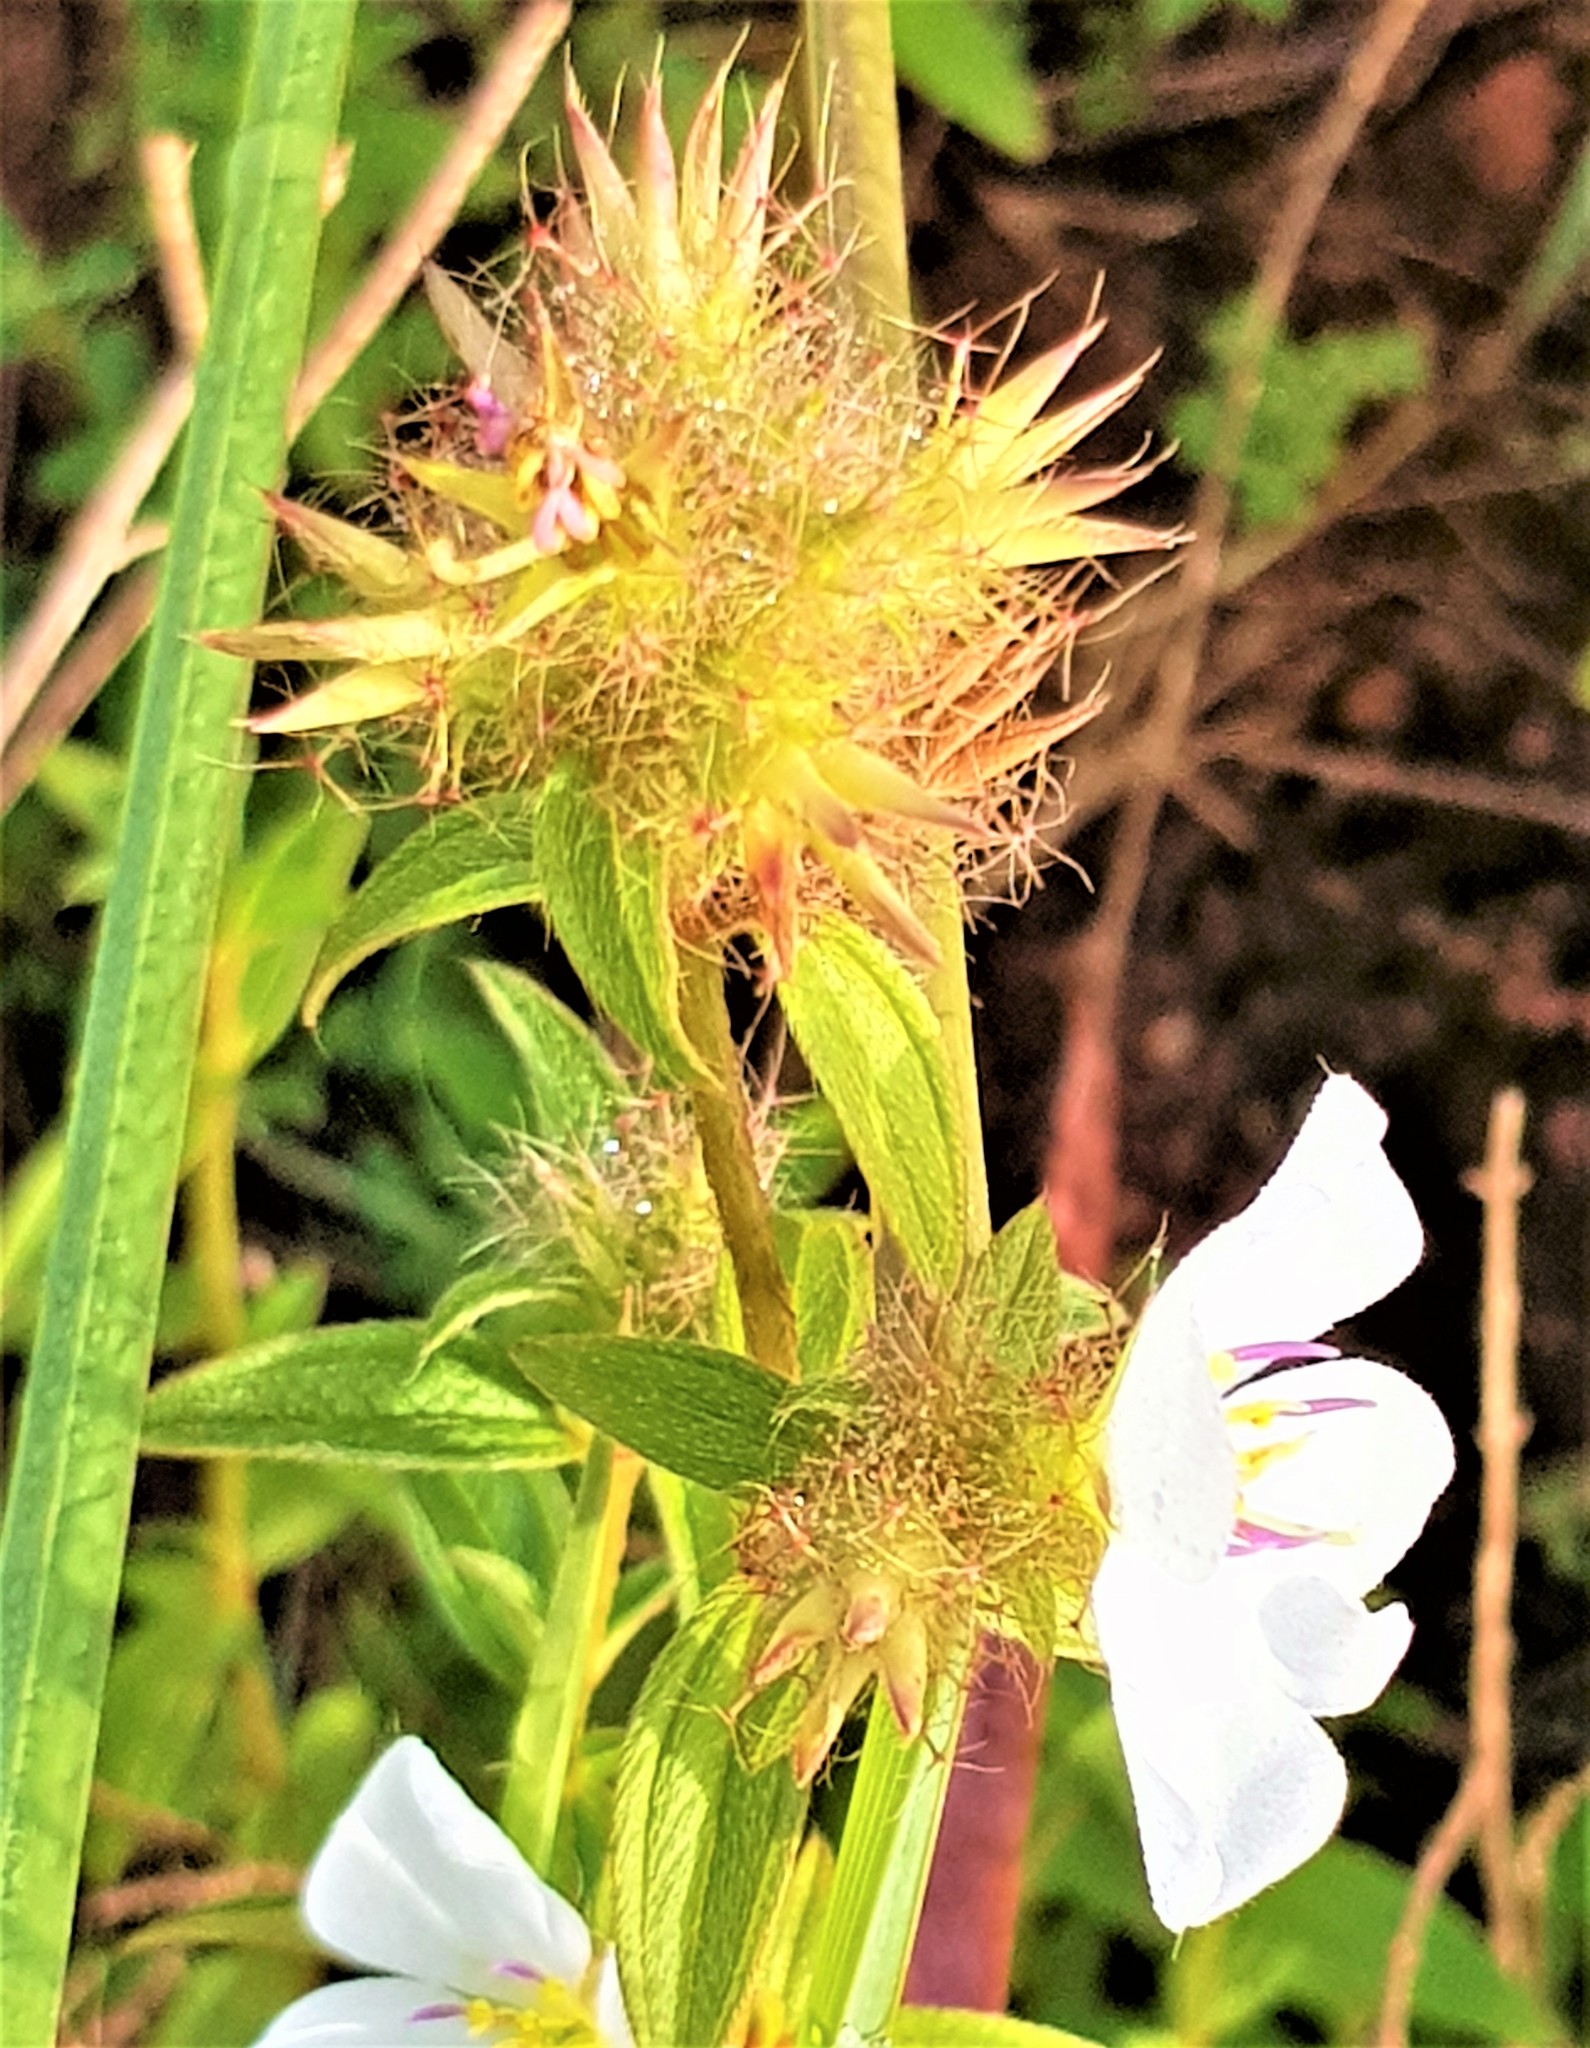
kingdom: Plantae
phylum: Tracheophyta
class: Magnoliopsida
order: Myrtales
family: Melastomataceae
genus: Pterolepis
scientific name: Pterolepis glomerata
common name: False meadowbeauty
